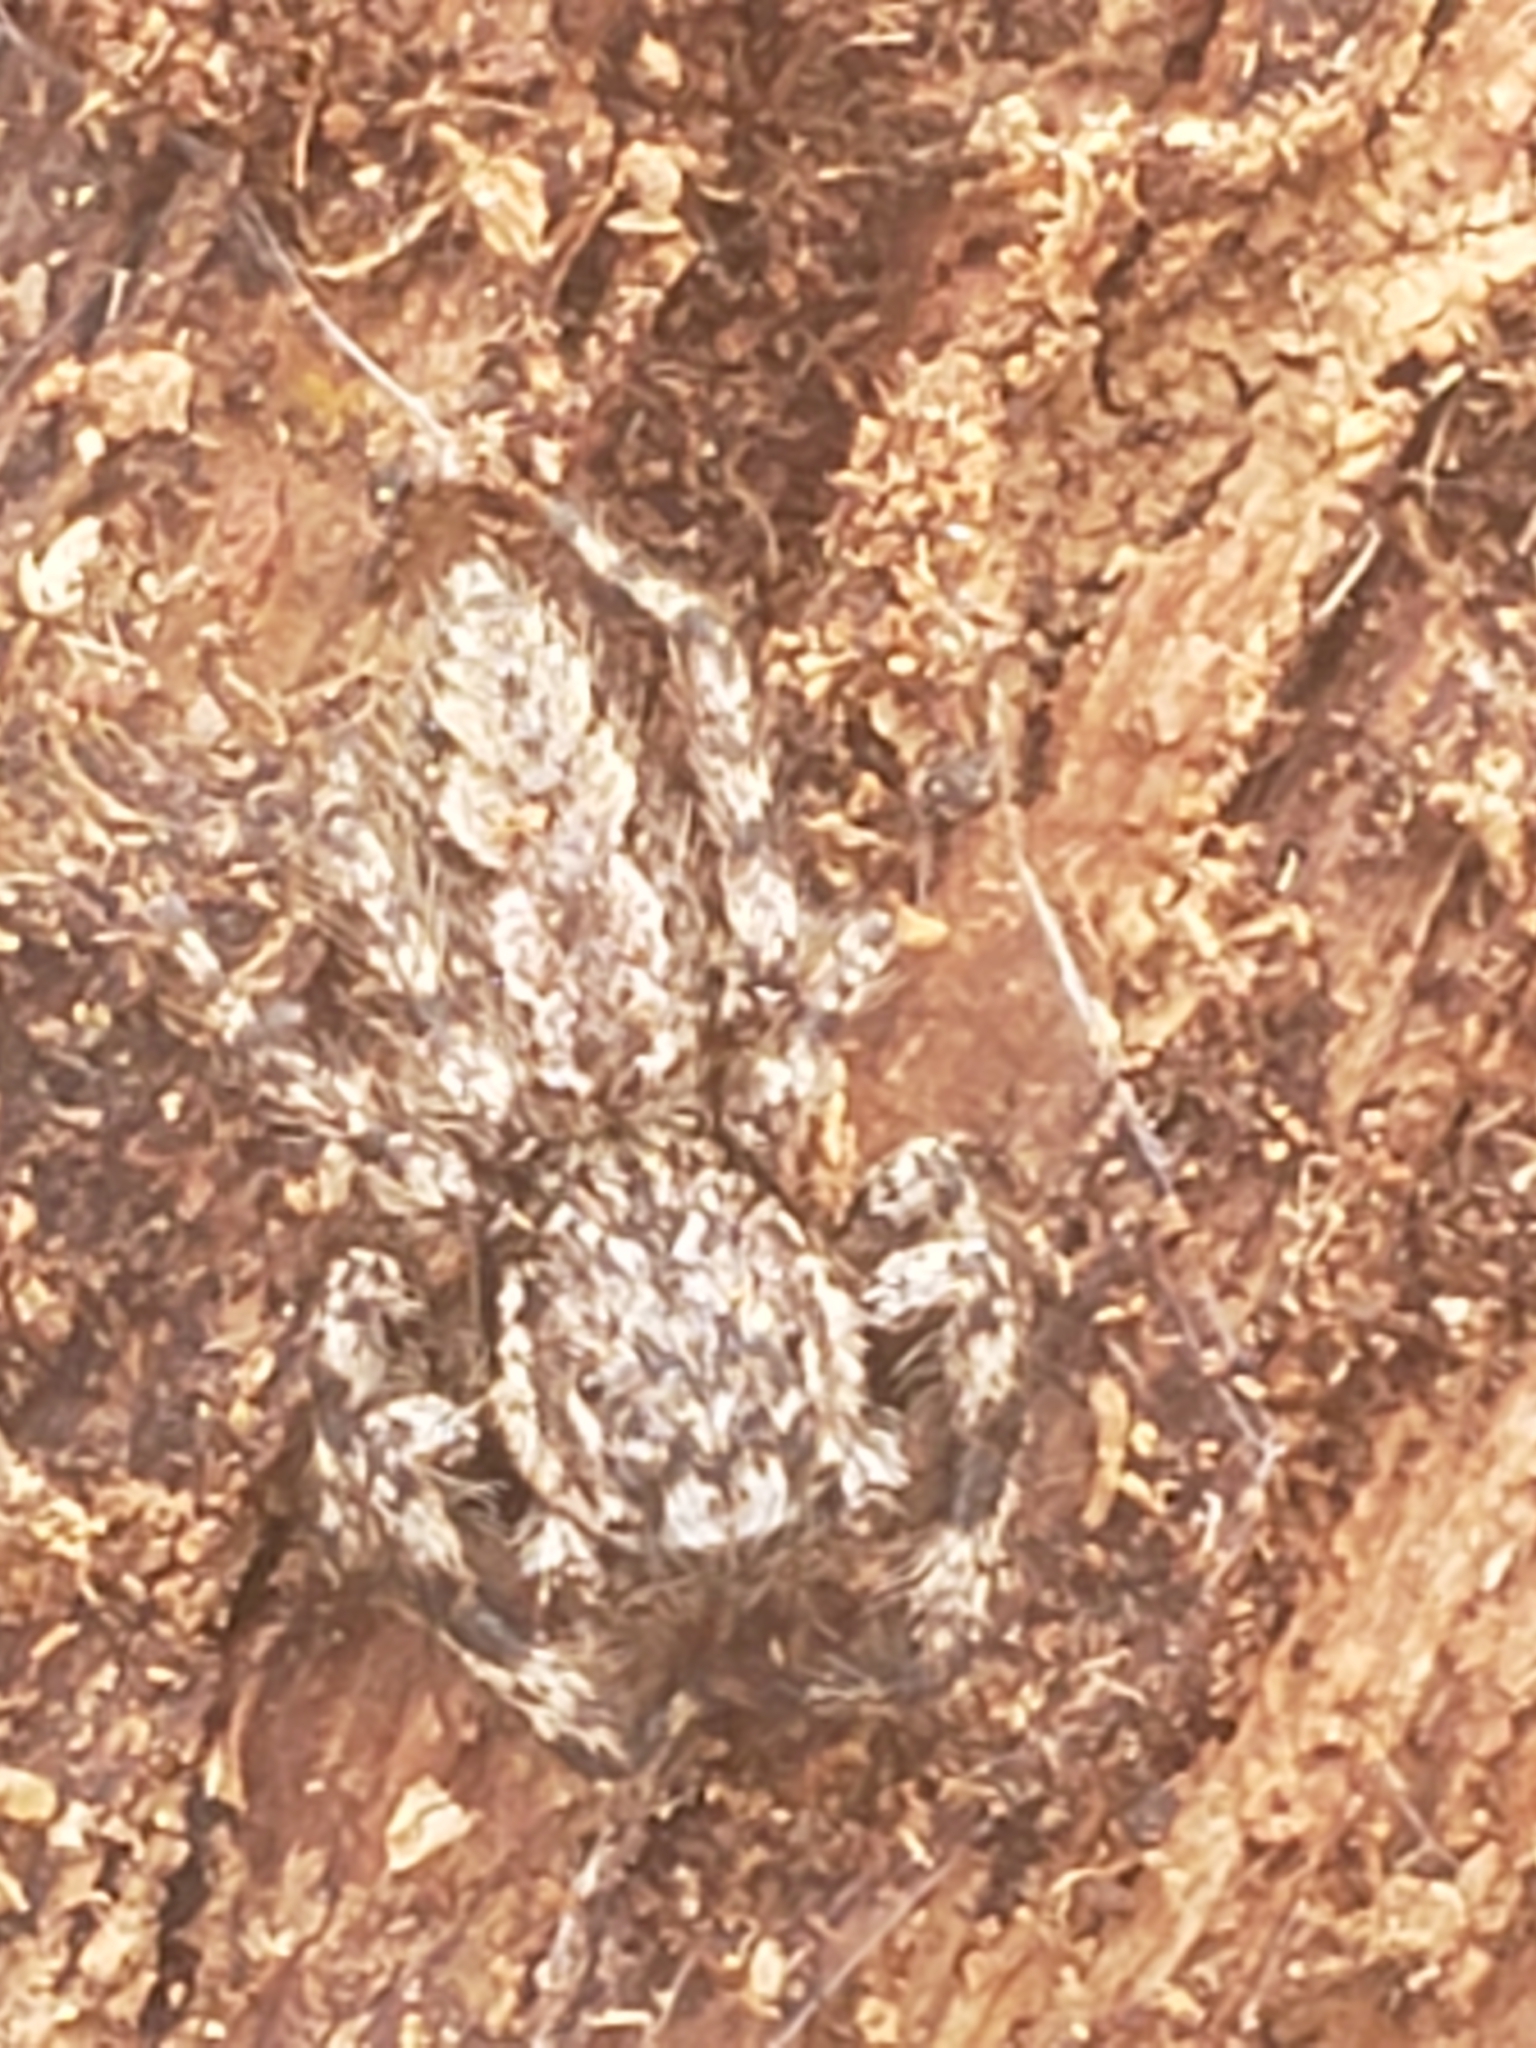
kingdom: Animalia
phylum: Arthropoda
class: Arachnida
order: Araneae
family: Salticidae
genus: Platycryptus
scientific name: Platycryptus undatus
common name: Tan jumping spider
